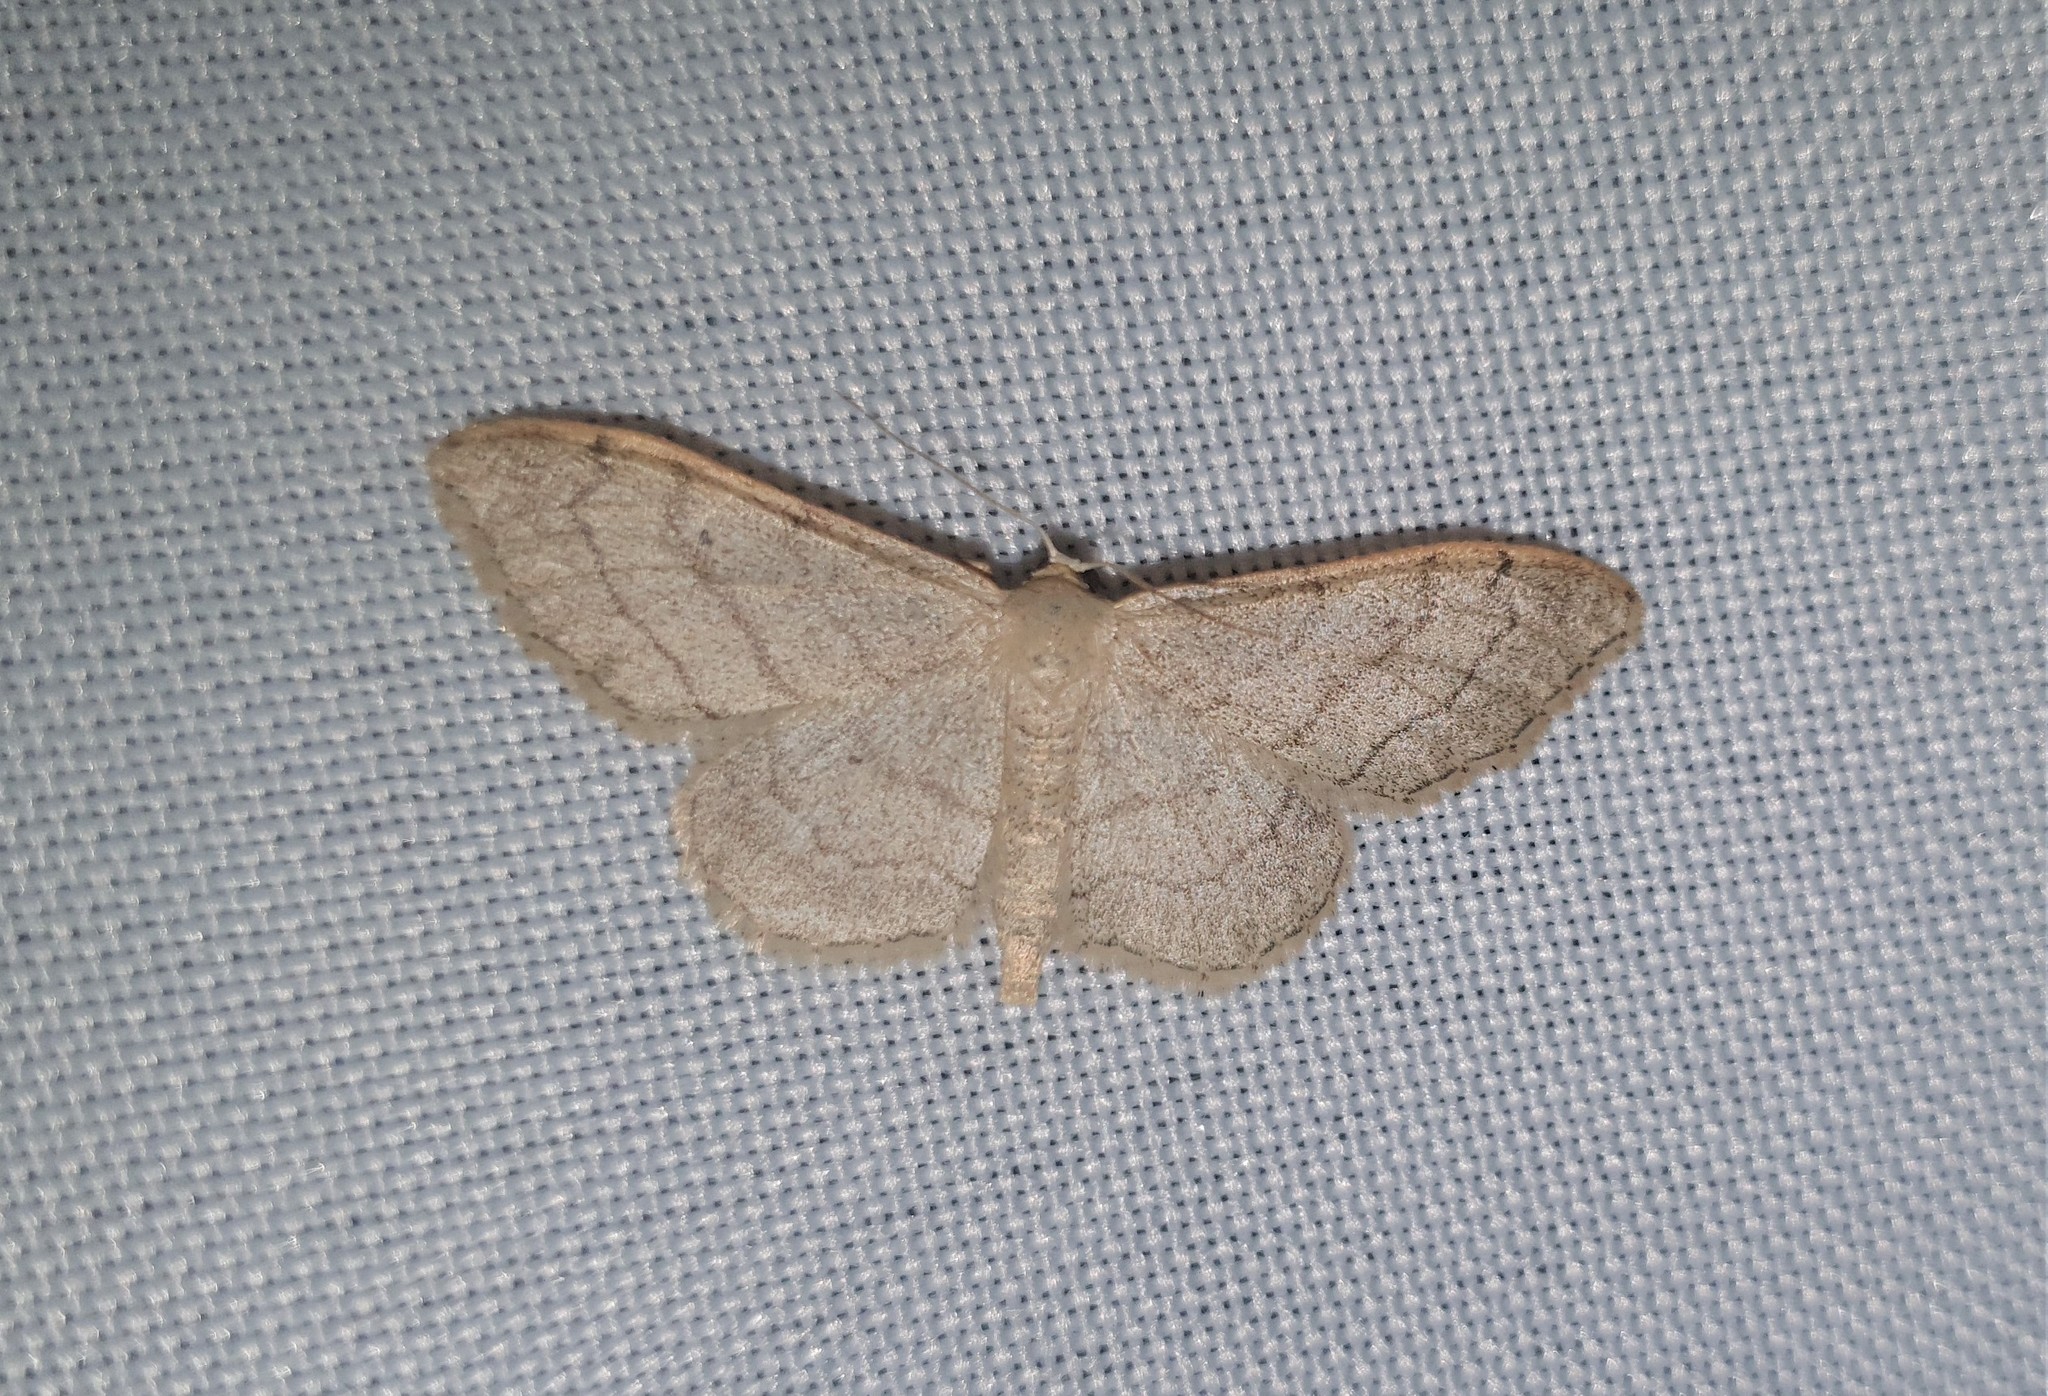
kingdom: Animalia
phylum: Arthropoda
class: Insecta
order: Lepidoptera
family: Geometridae
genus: Idaea
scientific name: Idaea aversata
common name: Riband wave
